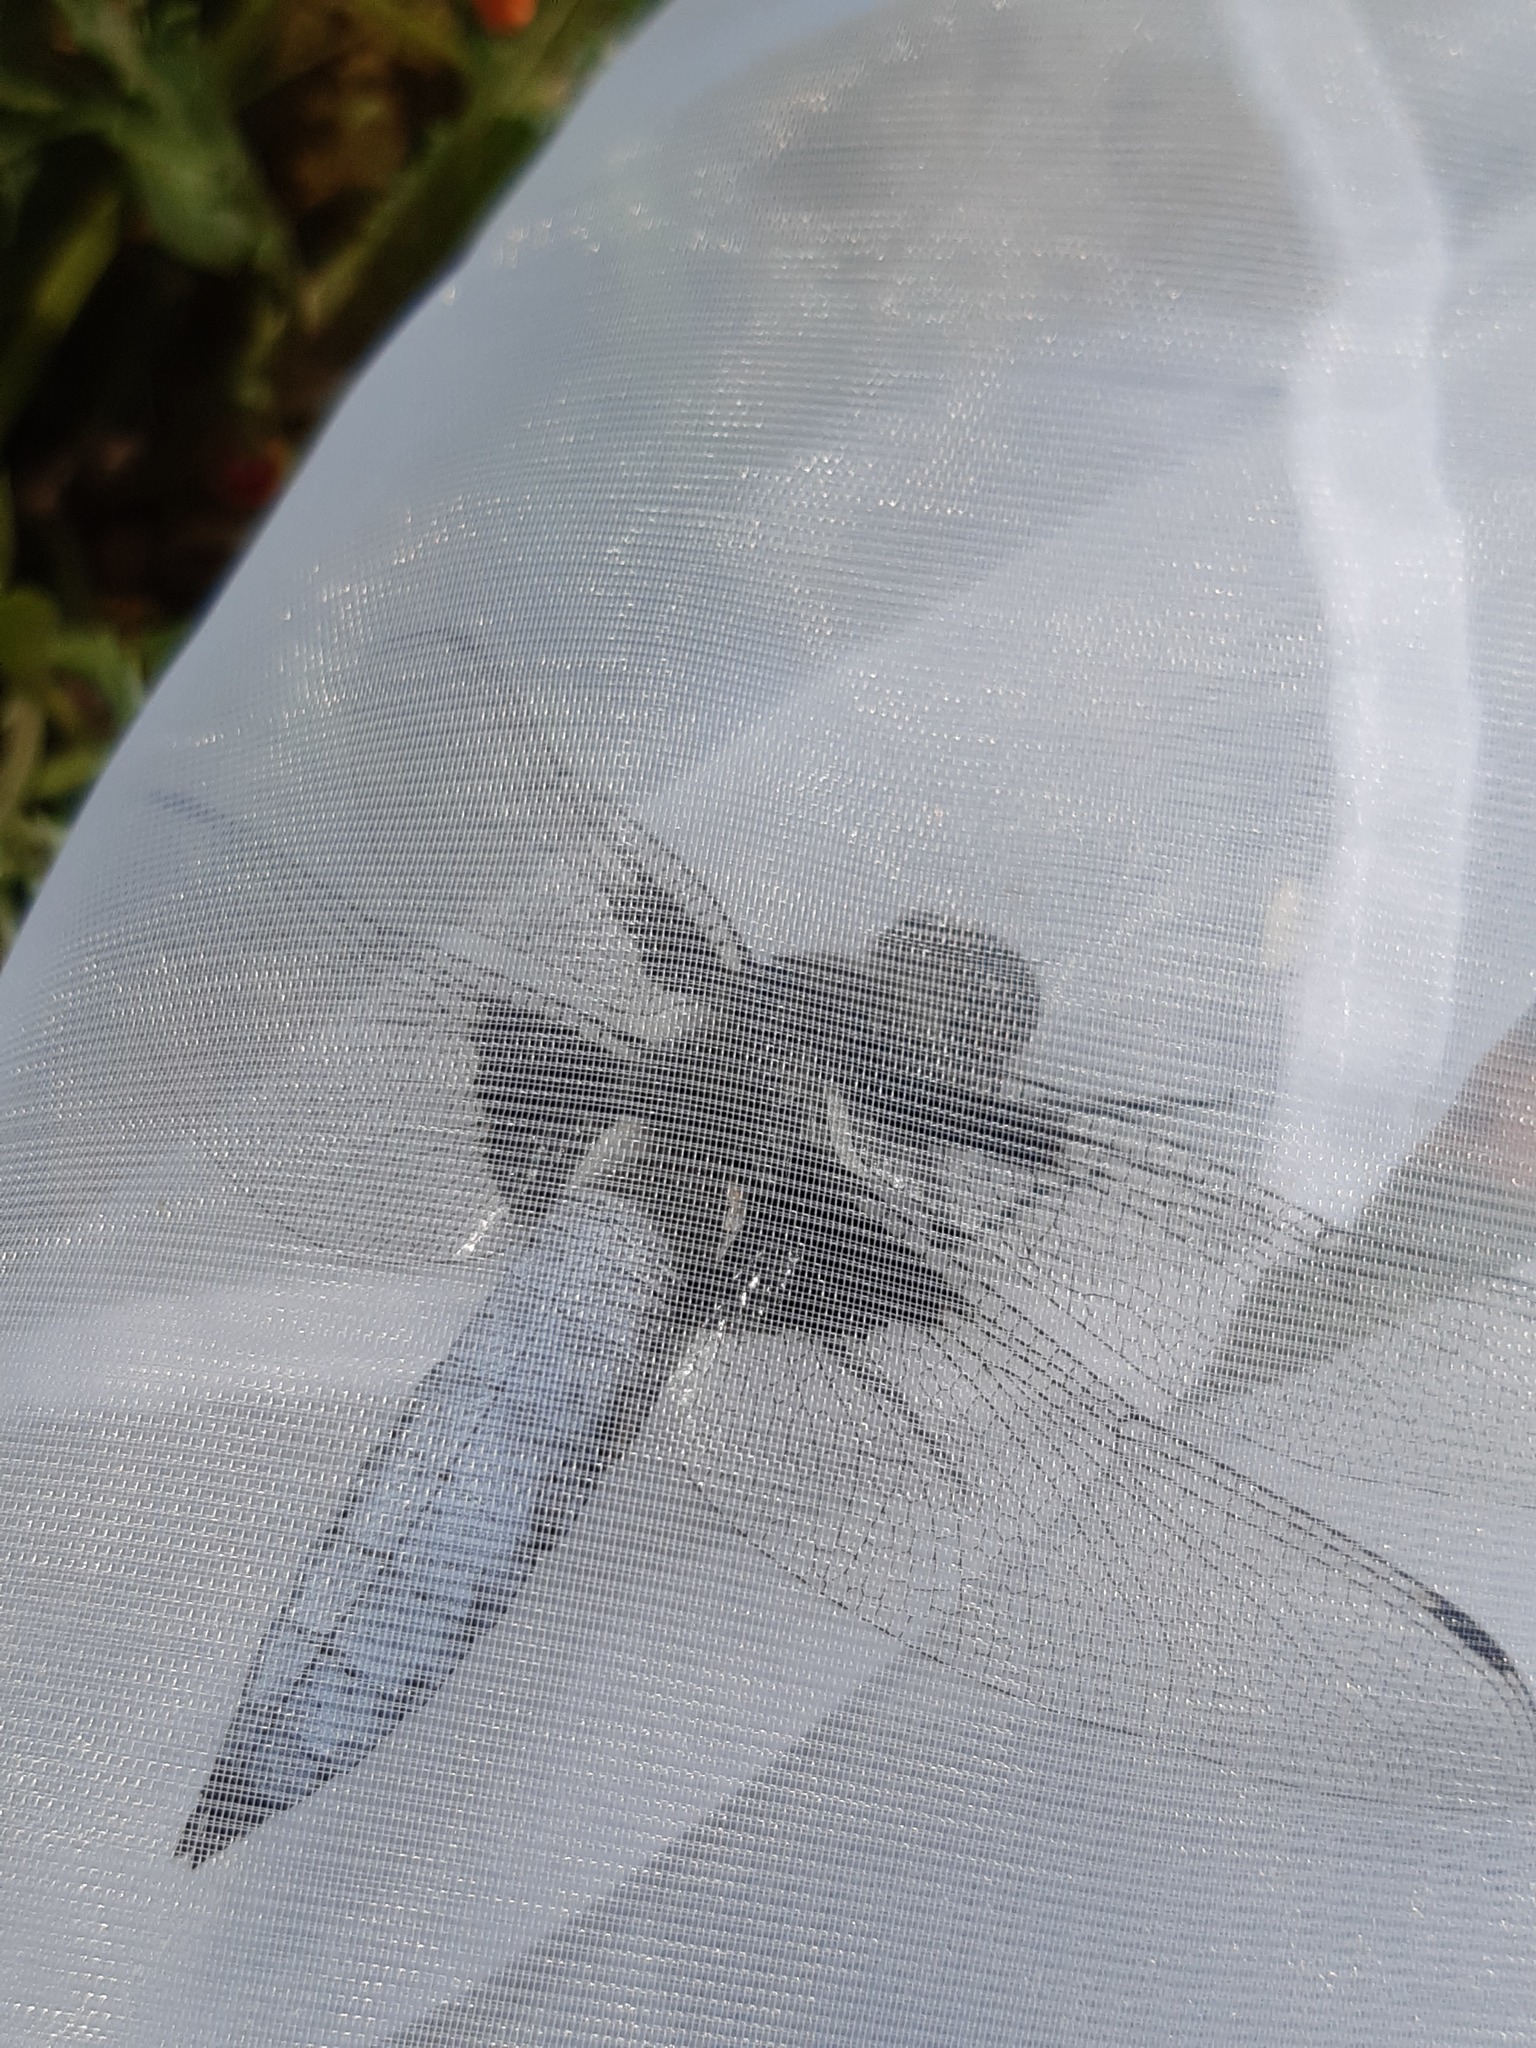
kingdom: Animalia
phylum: Arthropoda
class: Insecta
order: Odonata
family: Libellulidae
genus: Libellula
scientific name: Libellula depressa
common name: Broad-bodied chaser
